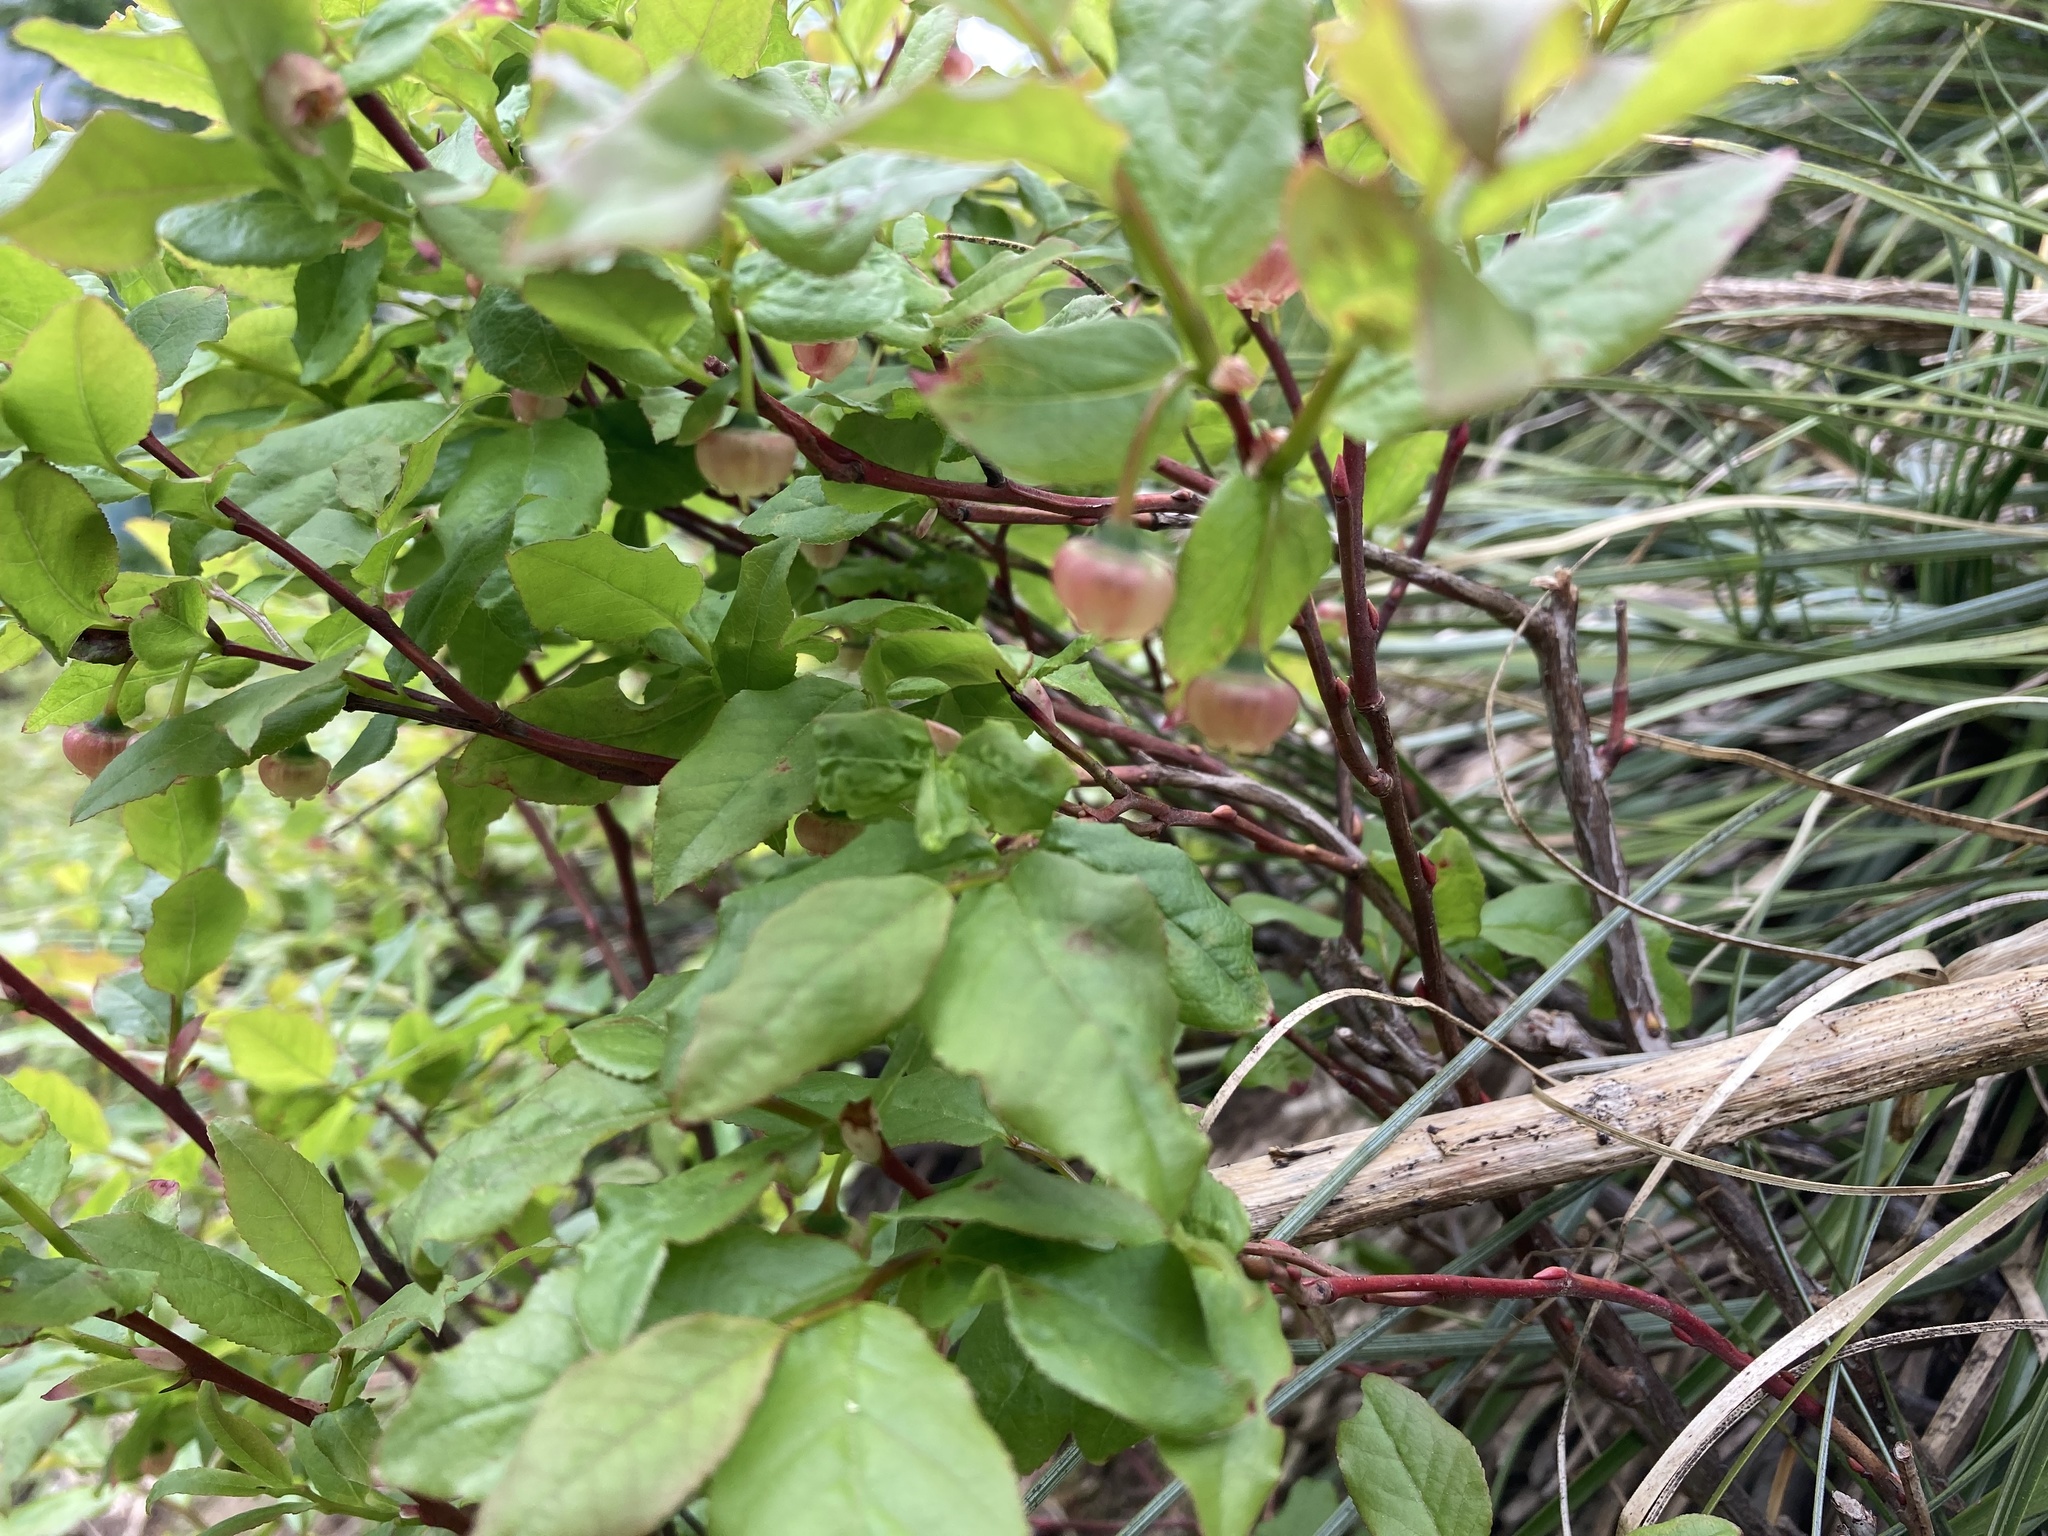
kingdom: Plantae
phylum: Tracheophyta
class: Magnoliopsida
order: Ericales
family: Ericaceae
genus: Vaccinium
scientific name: Vaccinium membranaceum
